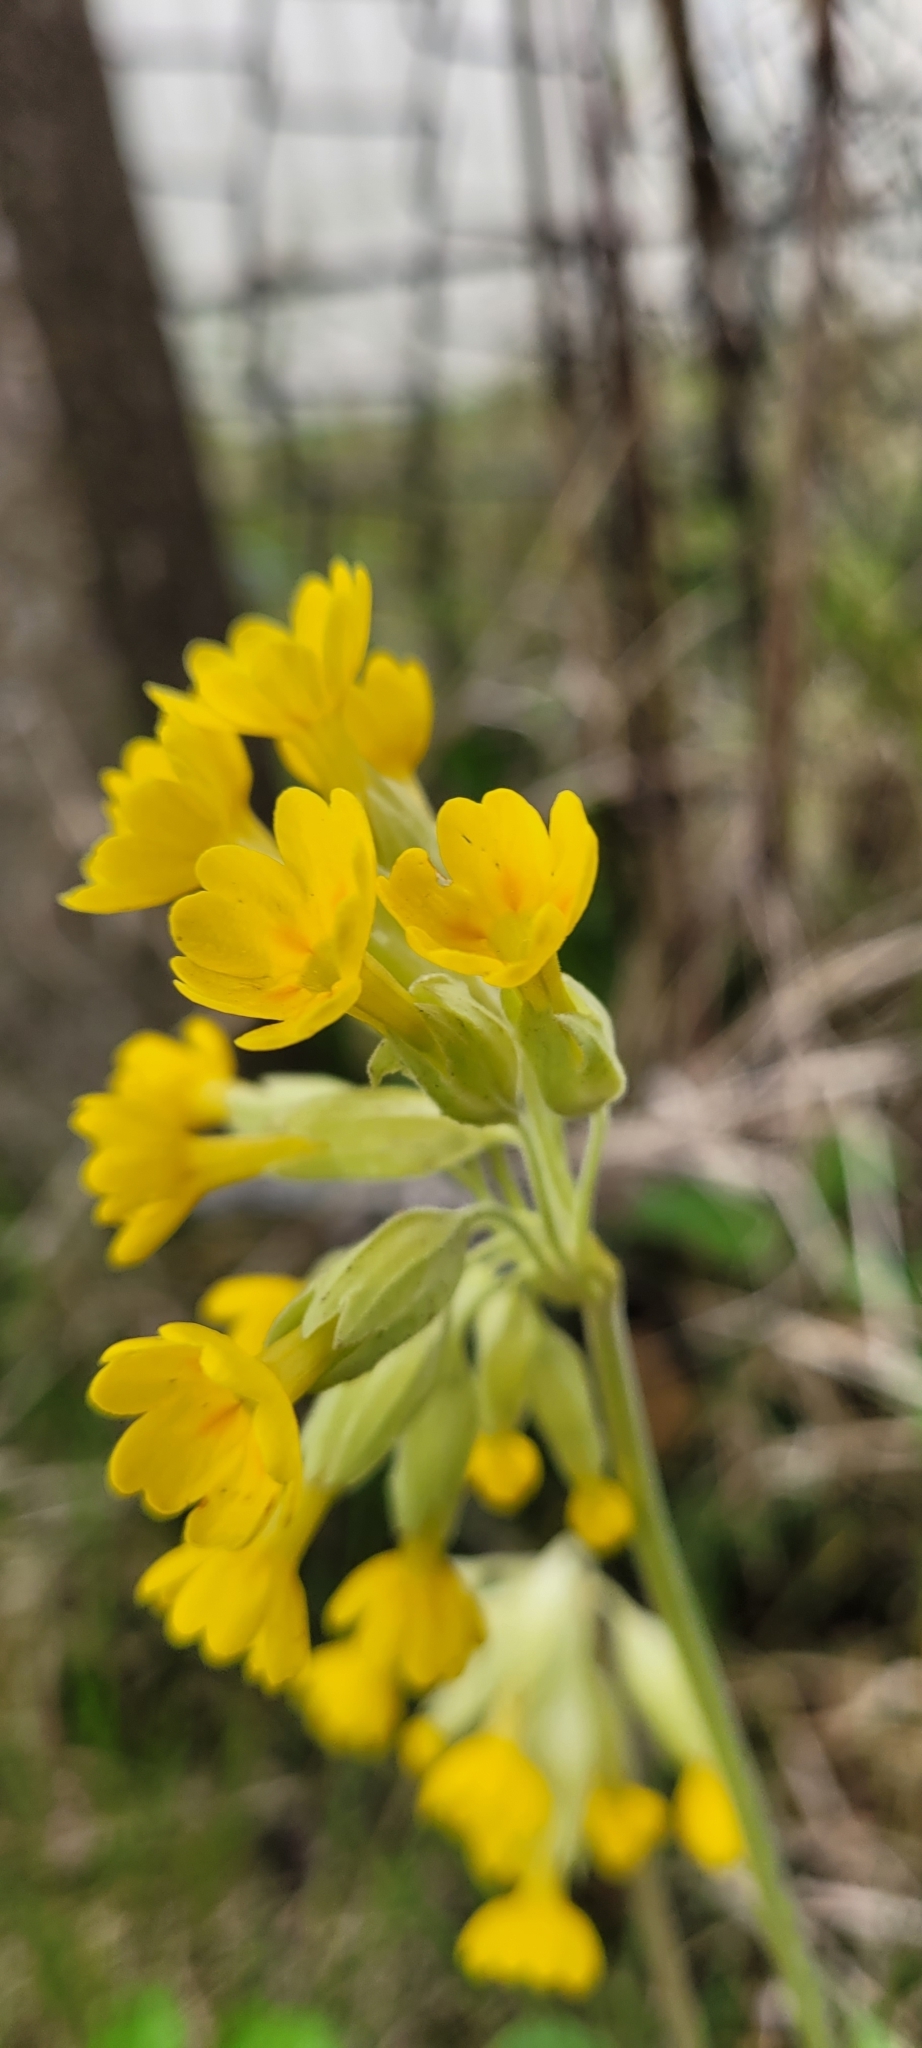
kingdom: Plantae
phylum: Tracheophyta
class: Magnoliopsida
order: Ericales
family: Primulaceae
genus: Primula
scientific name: Primula veris
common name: Cowslip
